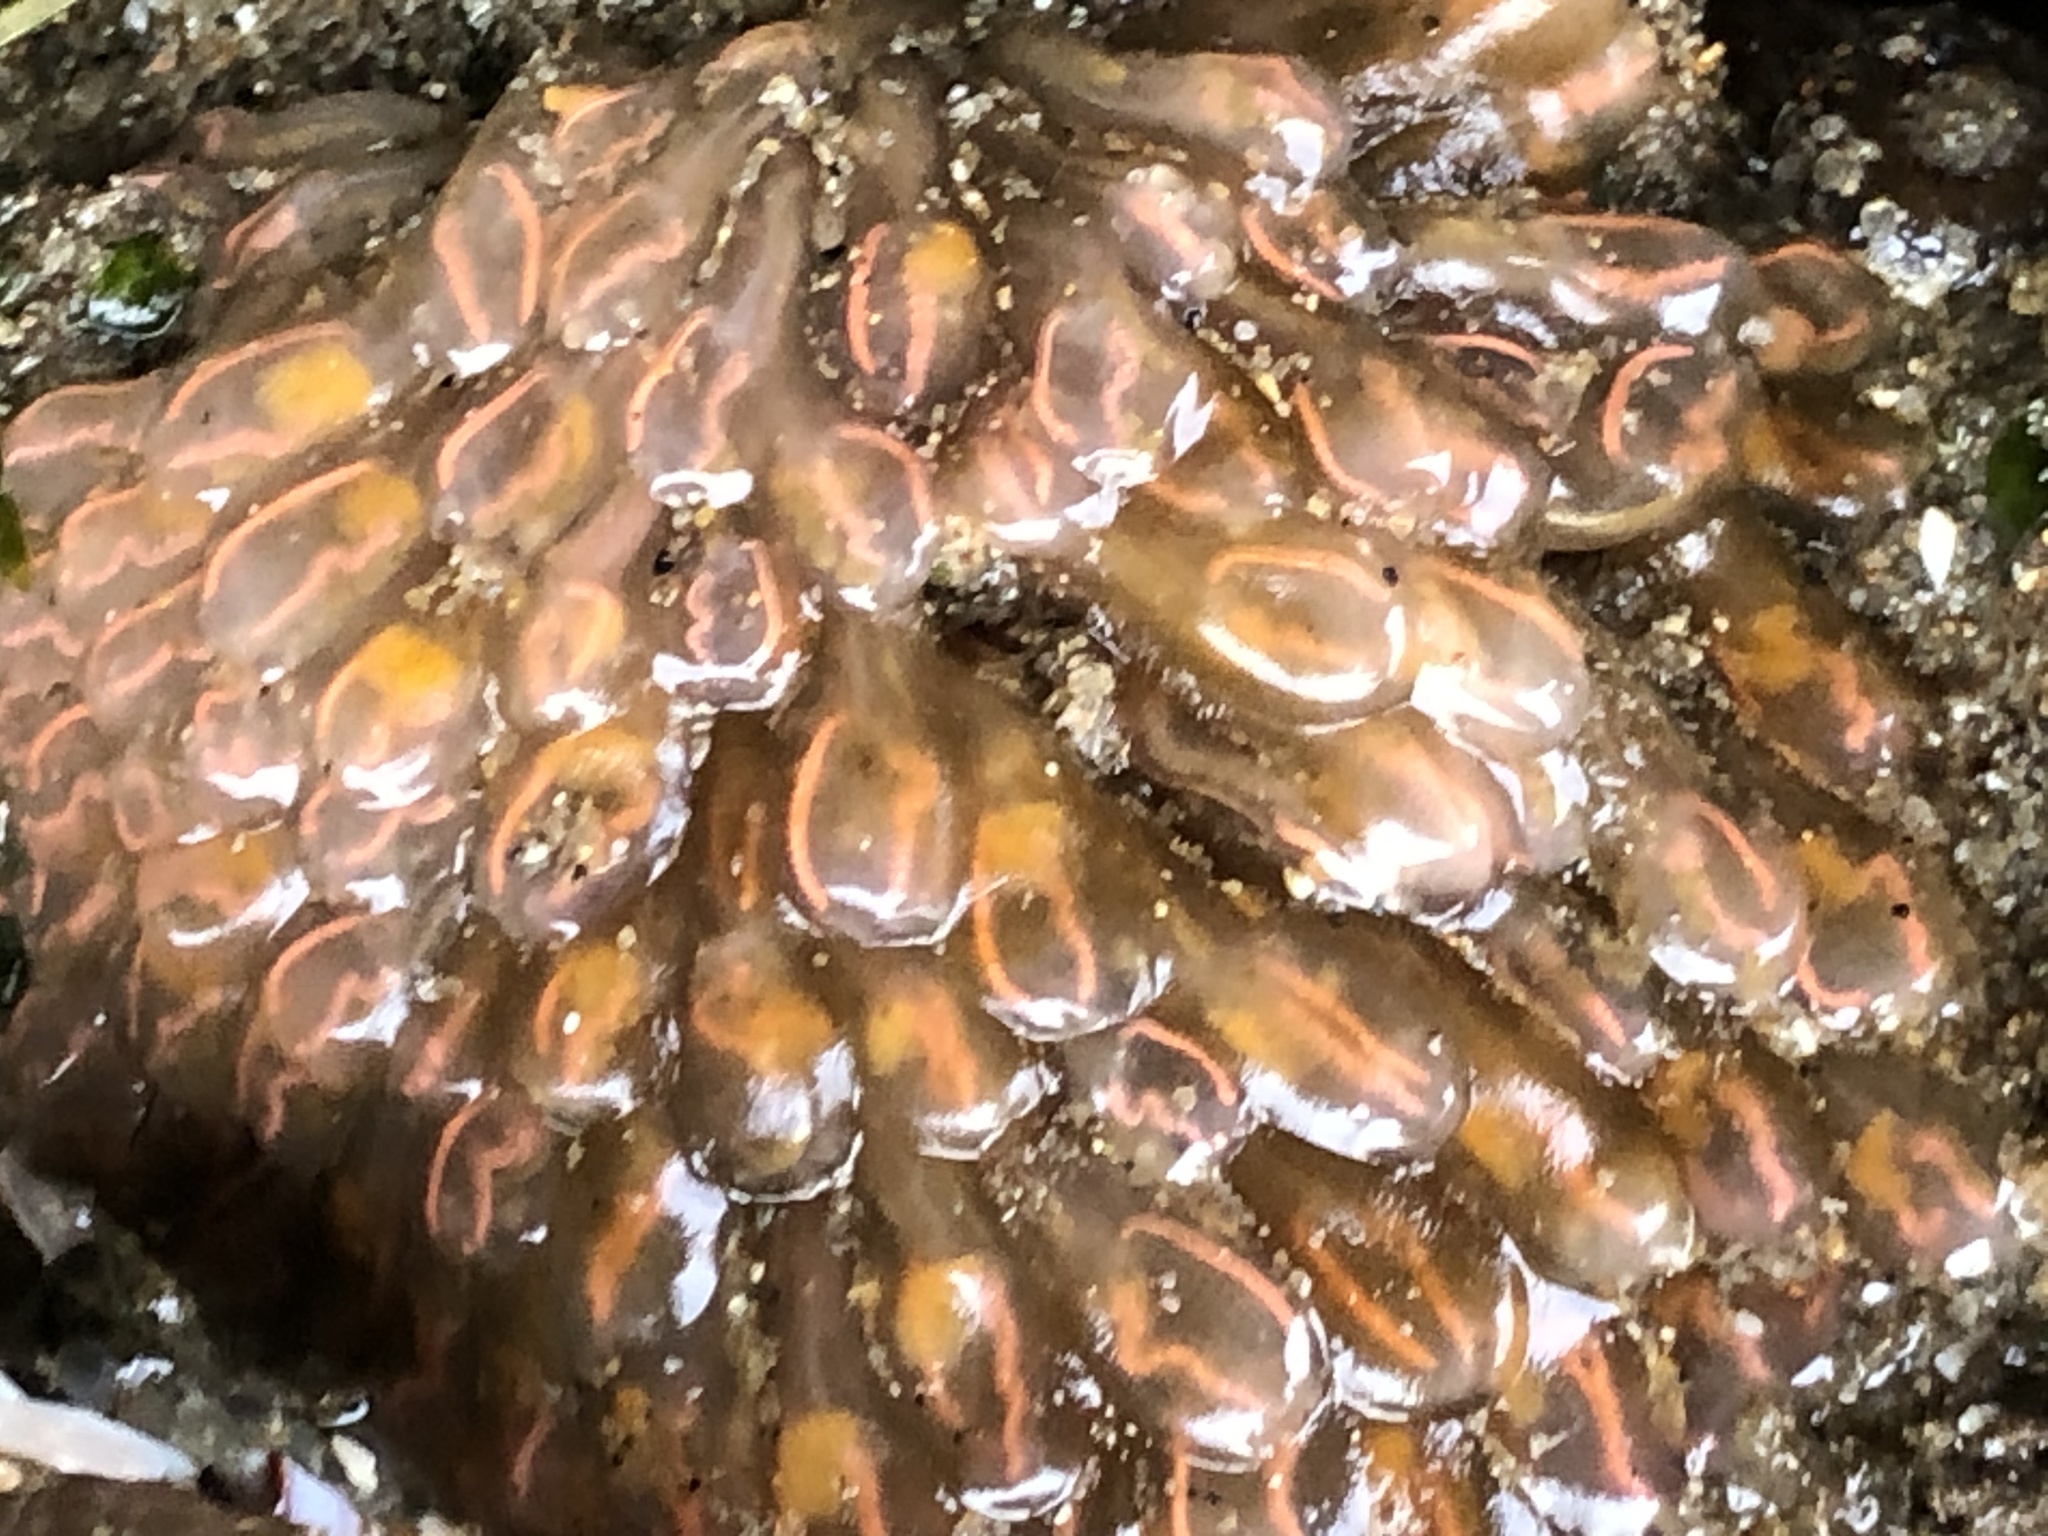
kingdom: Animalia
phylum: Chordata
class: Ascidiacea
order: Aplousobranchia
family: Clavelinidae
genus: Clavelina
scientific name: Clavelina huntsmani
